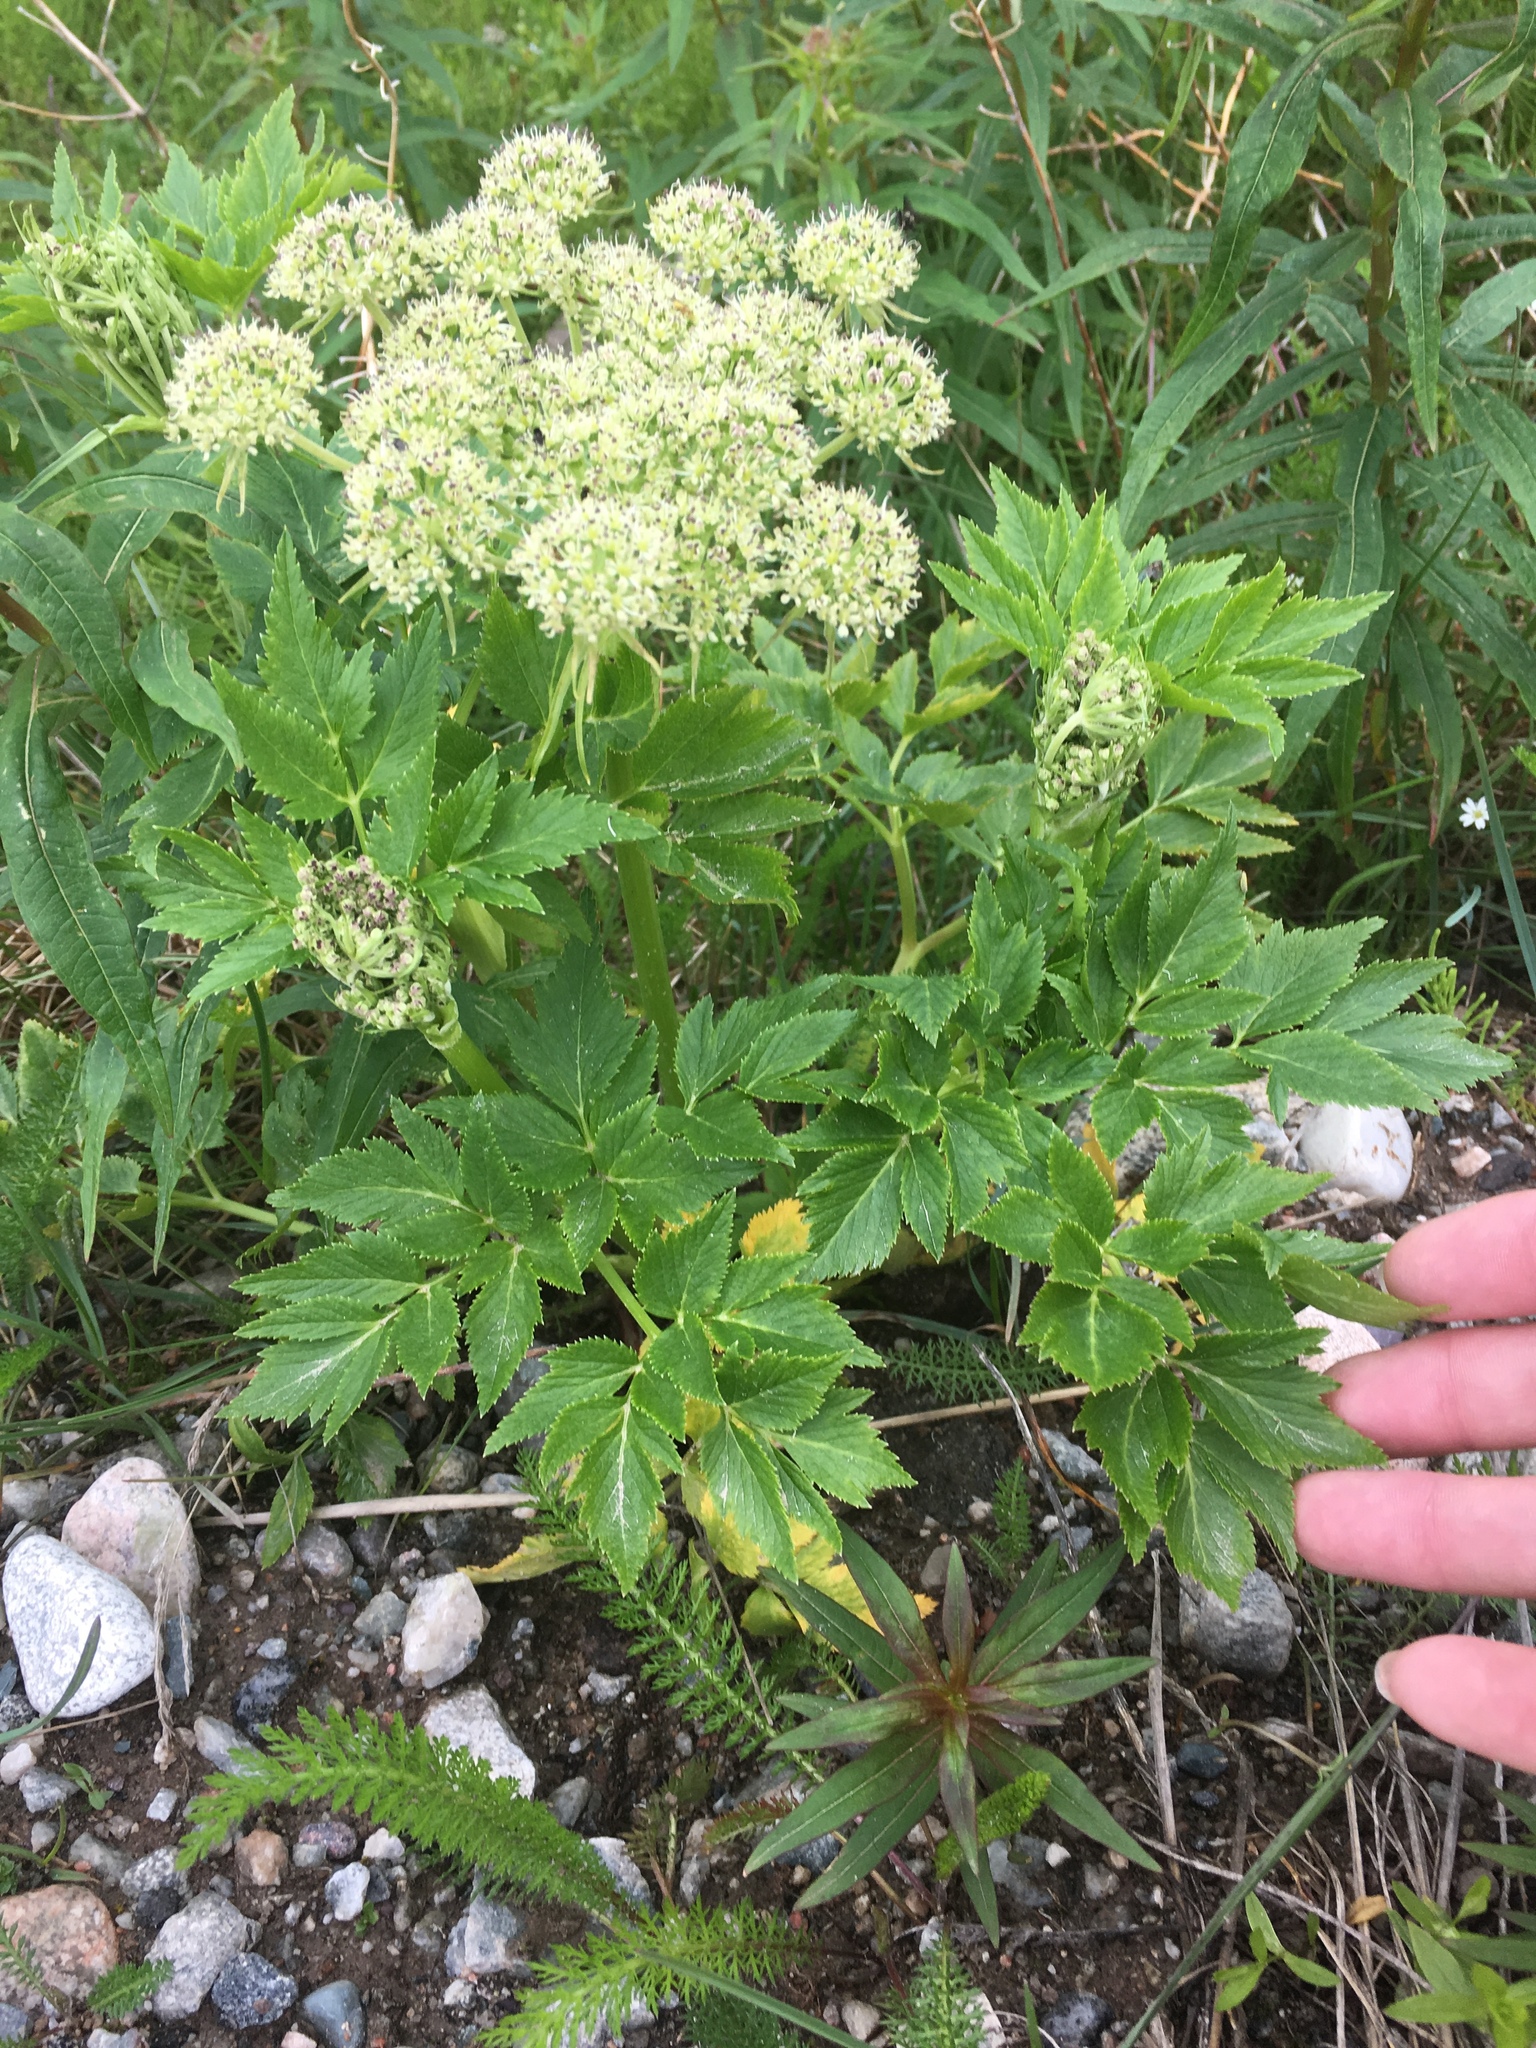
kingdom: Plantae
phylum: Tracheophyta
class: Magnoliopsida
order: Apiales
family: Apiaceae
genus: Angelica
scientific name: Angelica lucida
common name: Seabeach angelica
